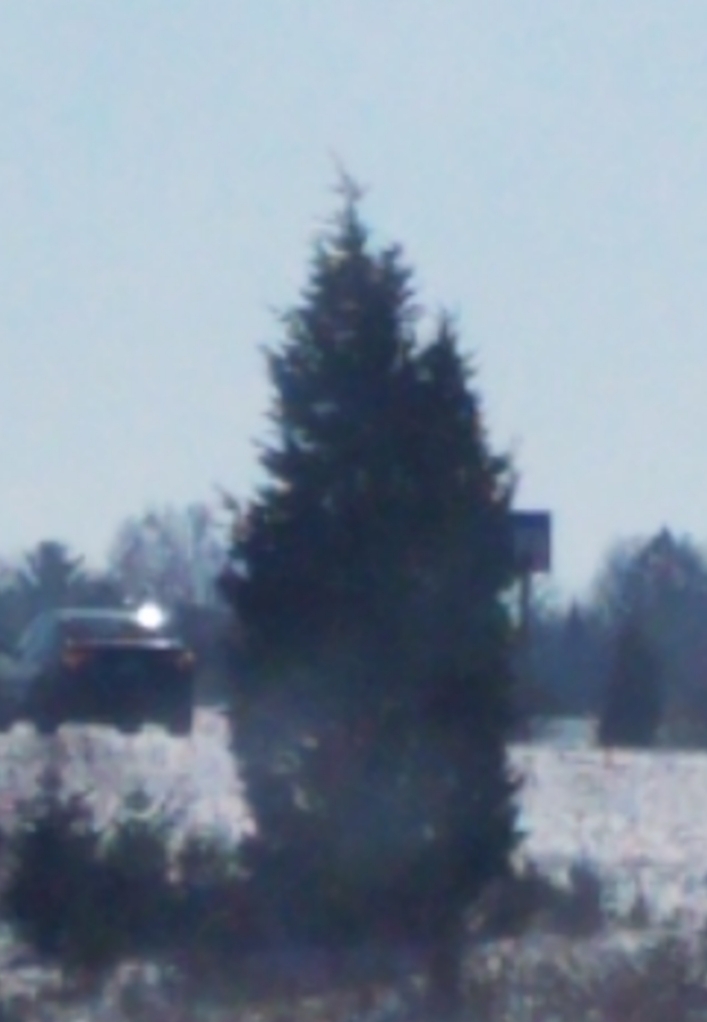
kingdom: Plantae
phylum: Tracheophyta
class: Pinopsida
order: Pinales
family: Cupressaceae
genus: Juniperus
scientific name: Juniperus virginiana
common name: Red juniper
